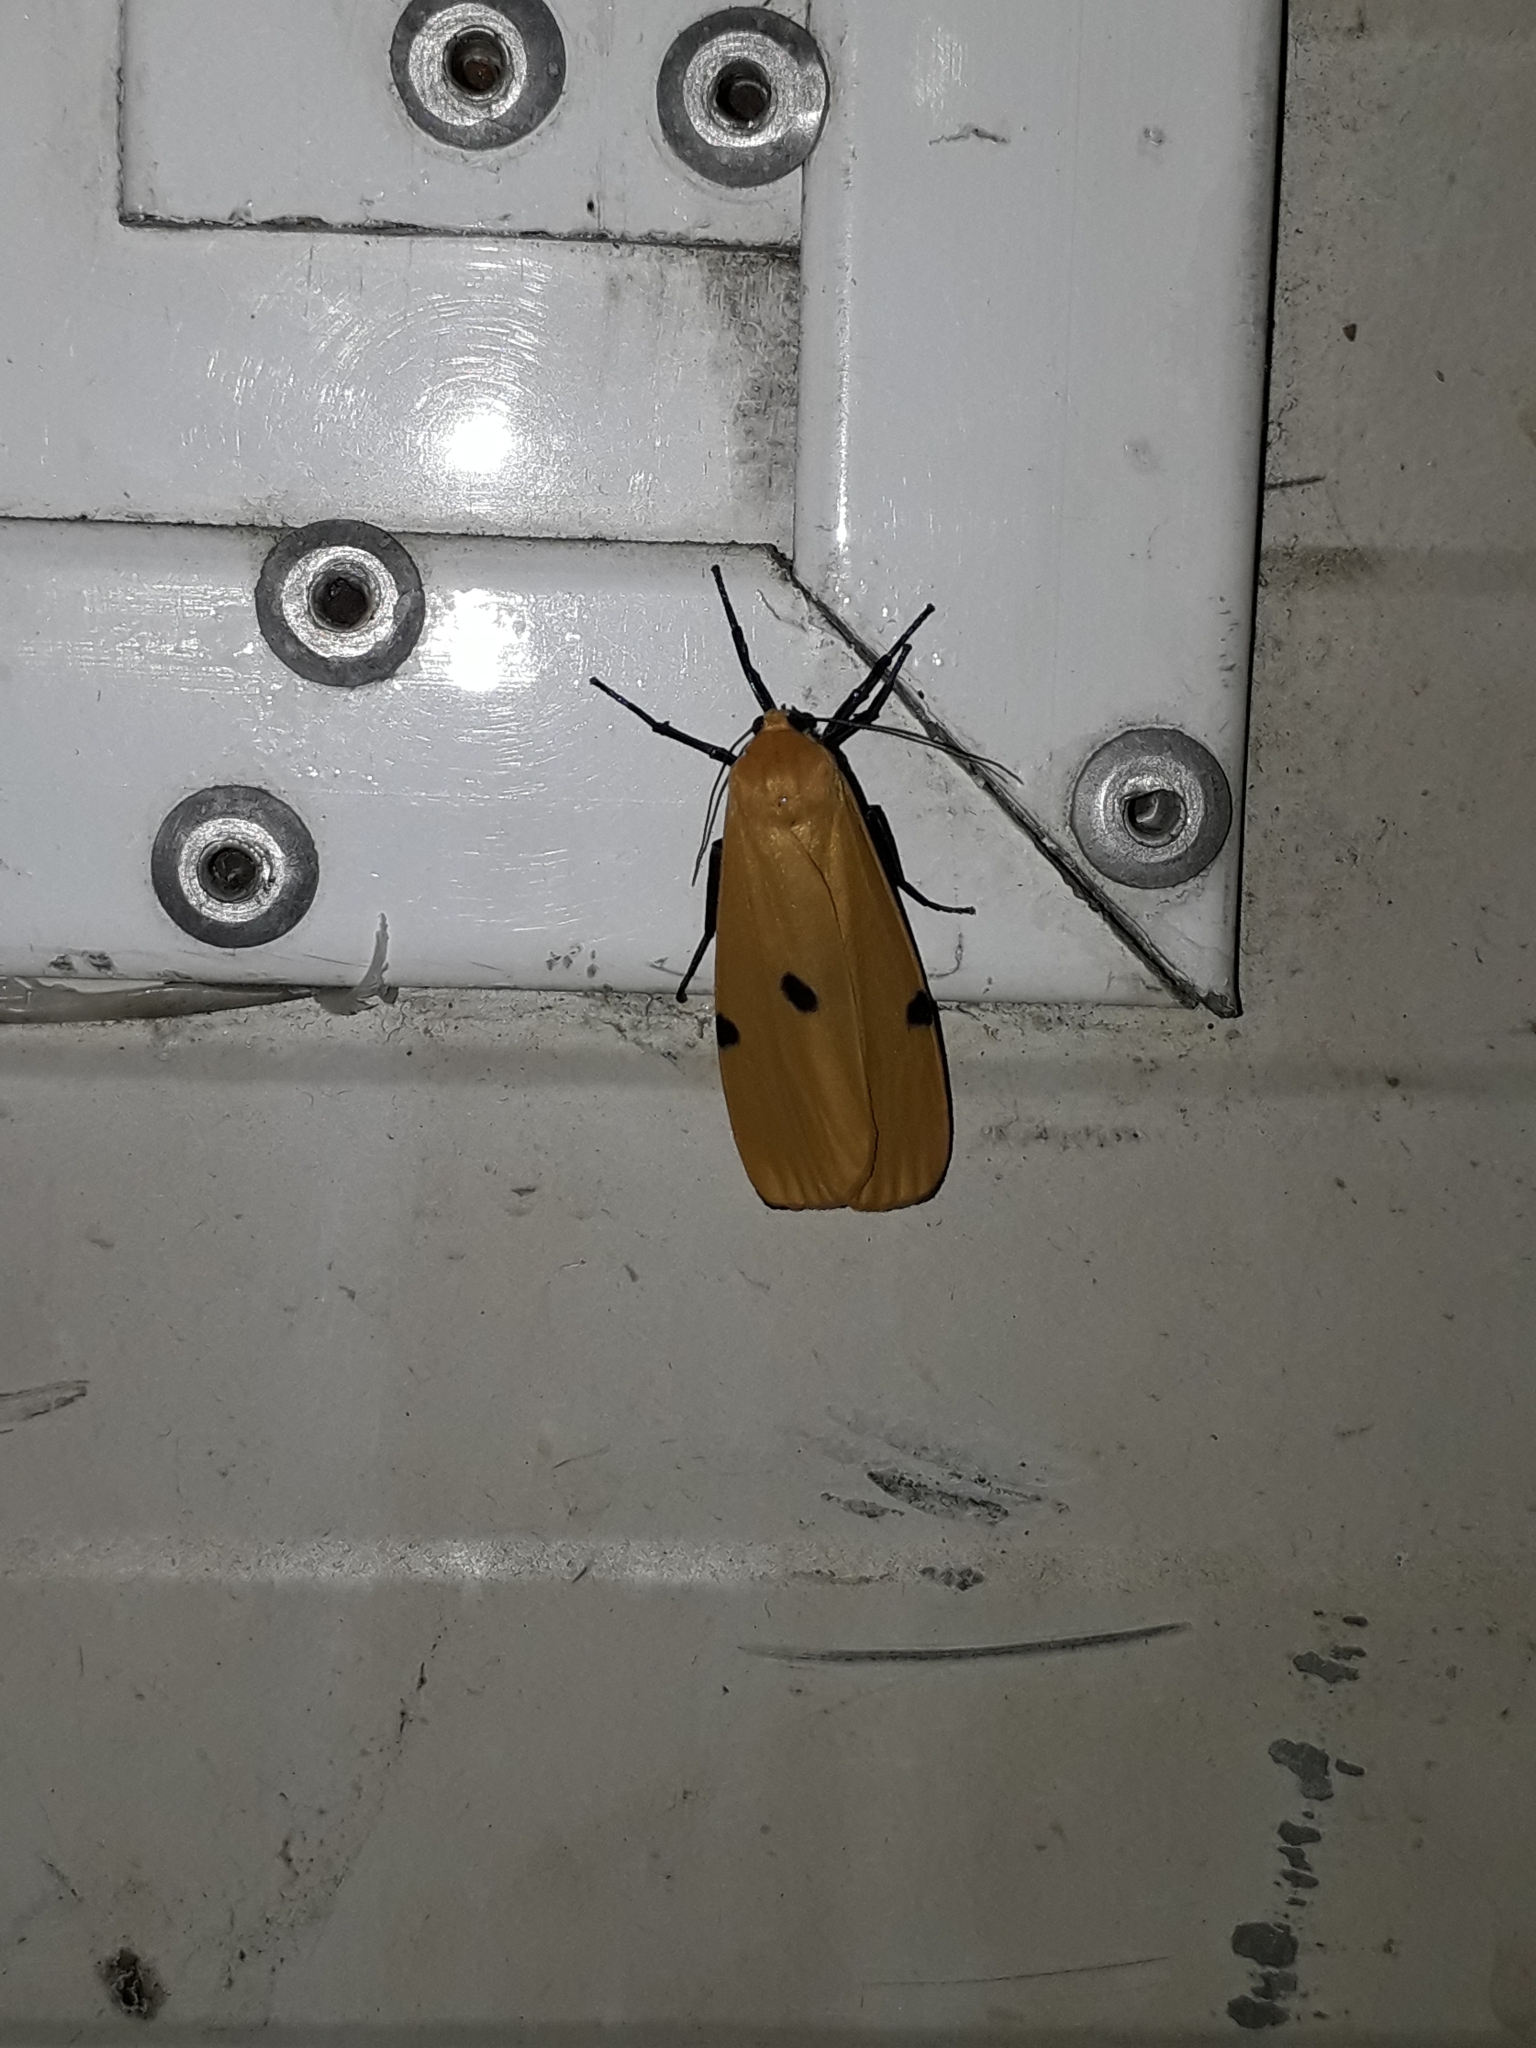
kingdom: Animalia
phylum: Arthropoda
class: Insecta
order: Lepidoptera
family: Erebidae
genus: Lithosia
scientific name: Lithosia quadra
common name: Four-spotted footman
